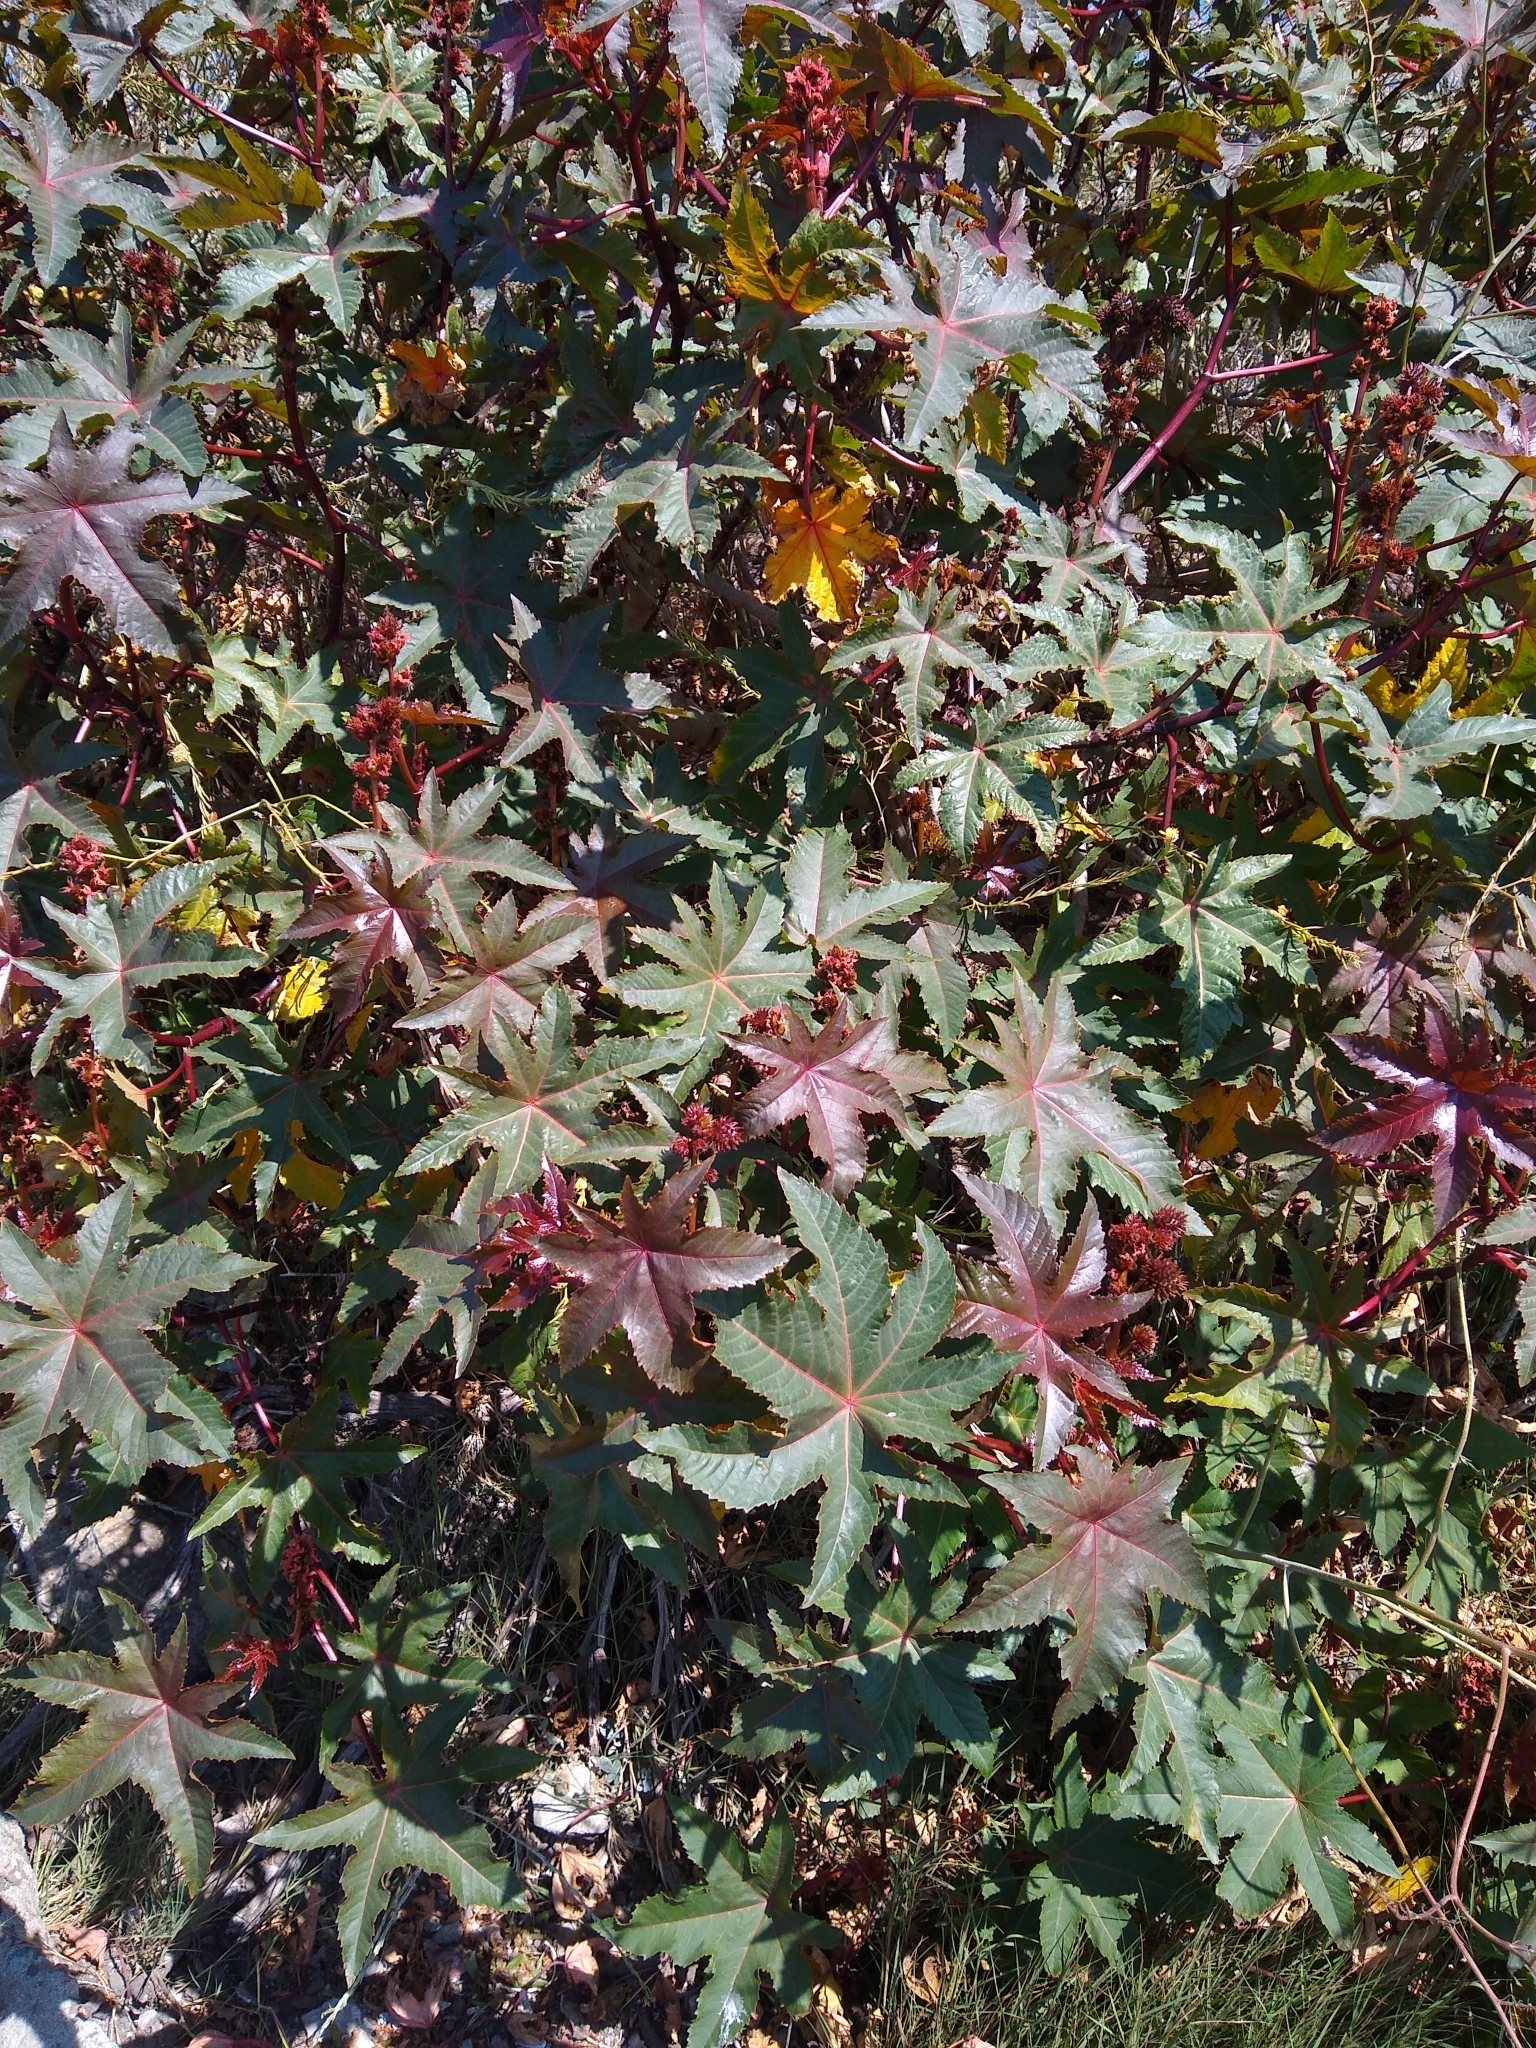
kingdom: Plantae
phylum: Tracheophyta
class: Magnoliopsida
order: Malpighiales
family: Euphorbiaceae
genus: Ricinus
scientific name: Ricinus communis
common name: Castor-oil-plant
